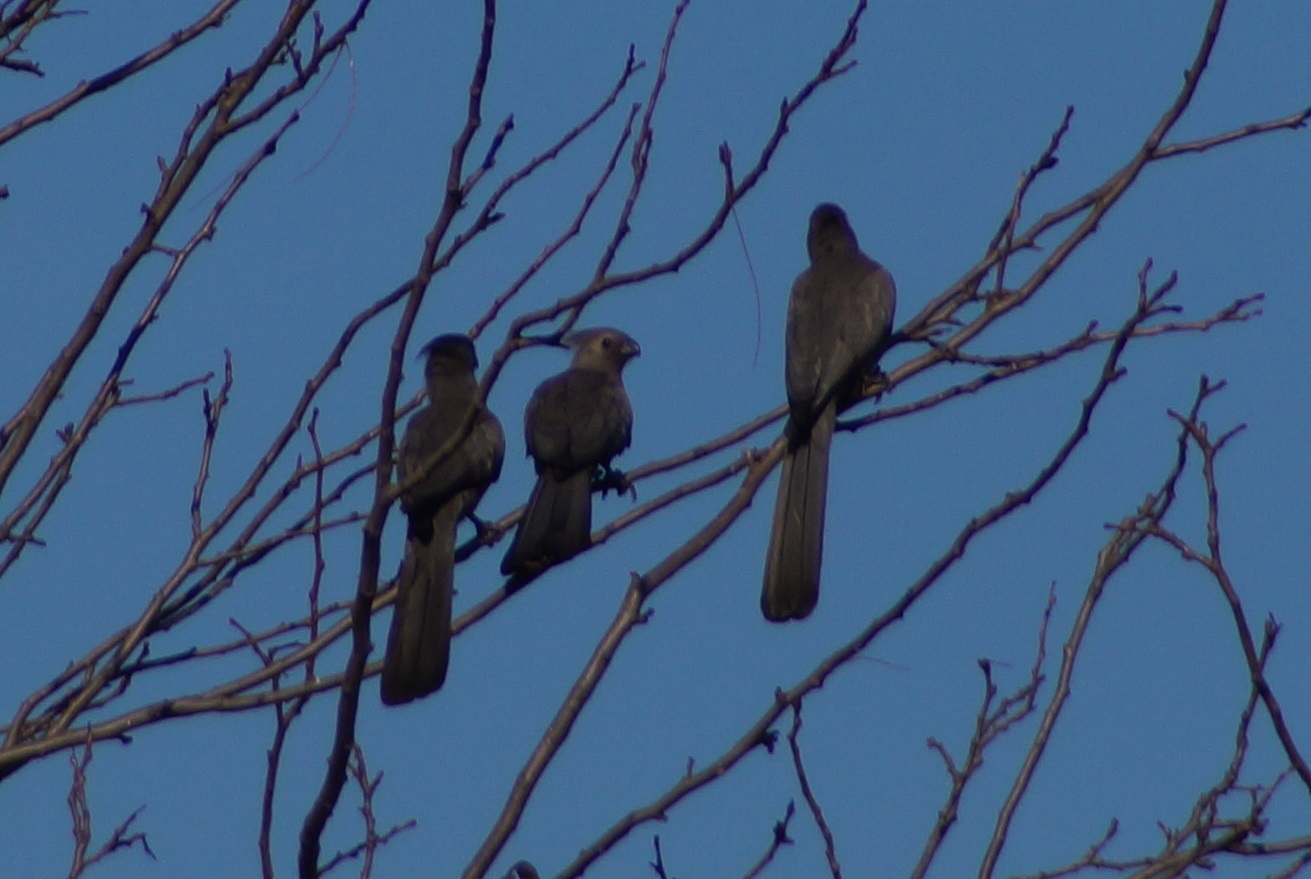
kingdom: Animalia
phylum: Chordata
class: Aves
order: Musophagiformes
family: Musophagidae
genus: Corythaixoides
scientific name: Corythaixoides concolor
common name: Grey go-away-bird
